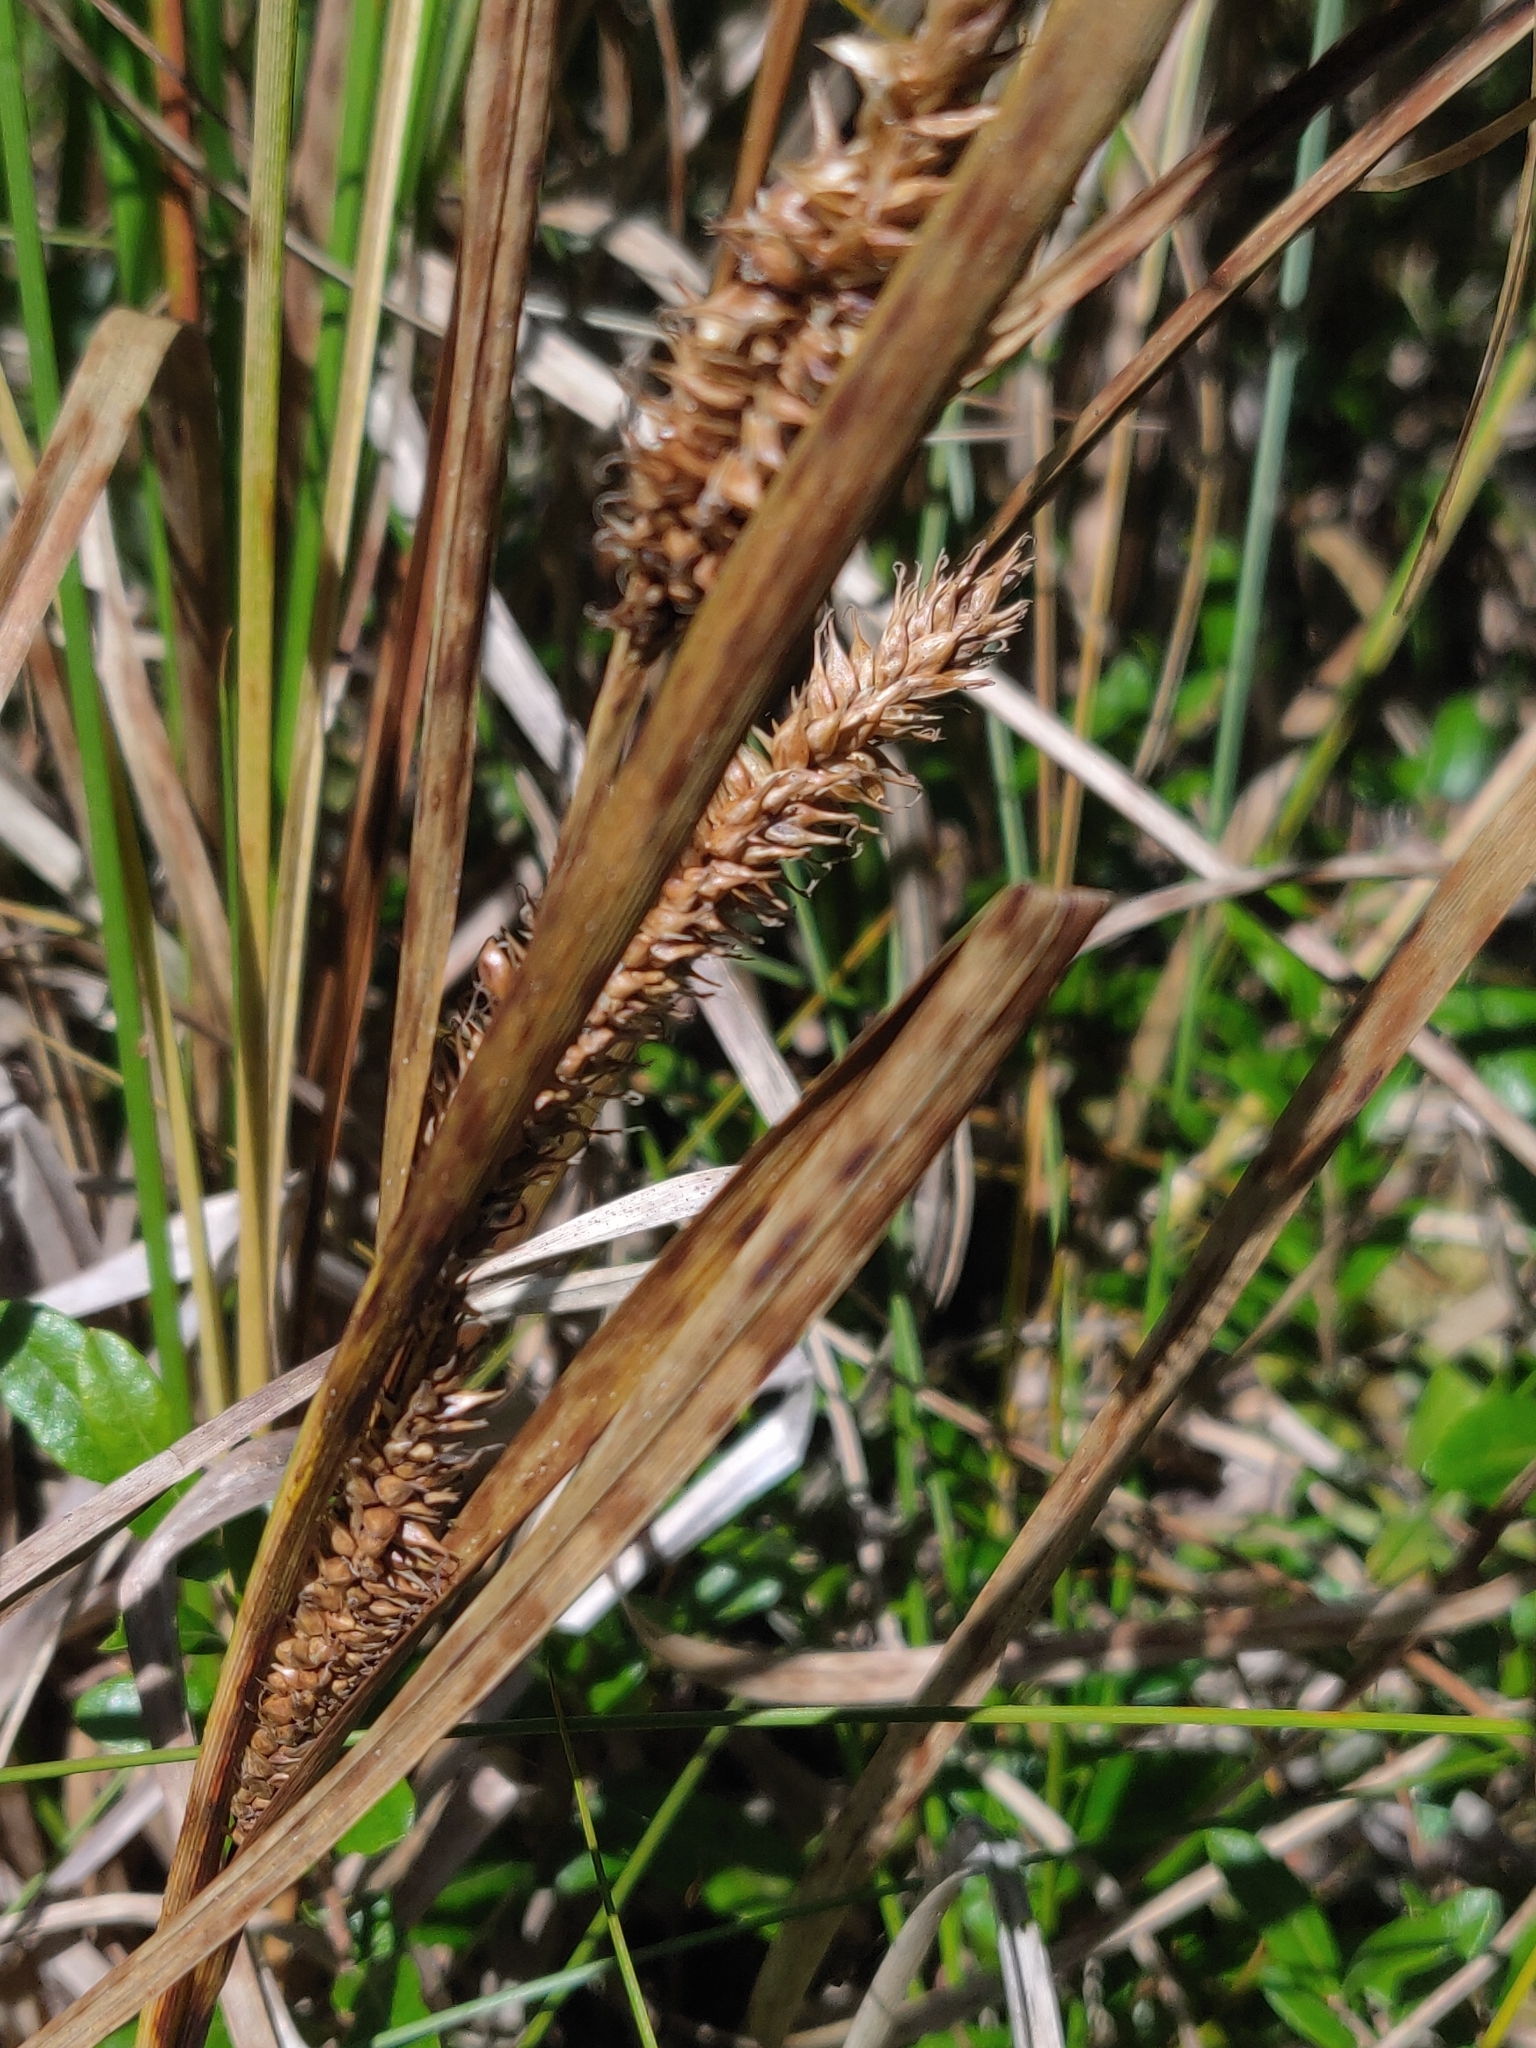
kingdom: Plantae
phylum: Tracheophyta
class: Liliopsida
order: Poales
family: Cyperaceae
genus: Carex
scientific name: Carex utriculata
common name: Beaked sedge
